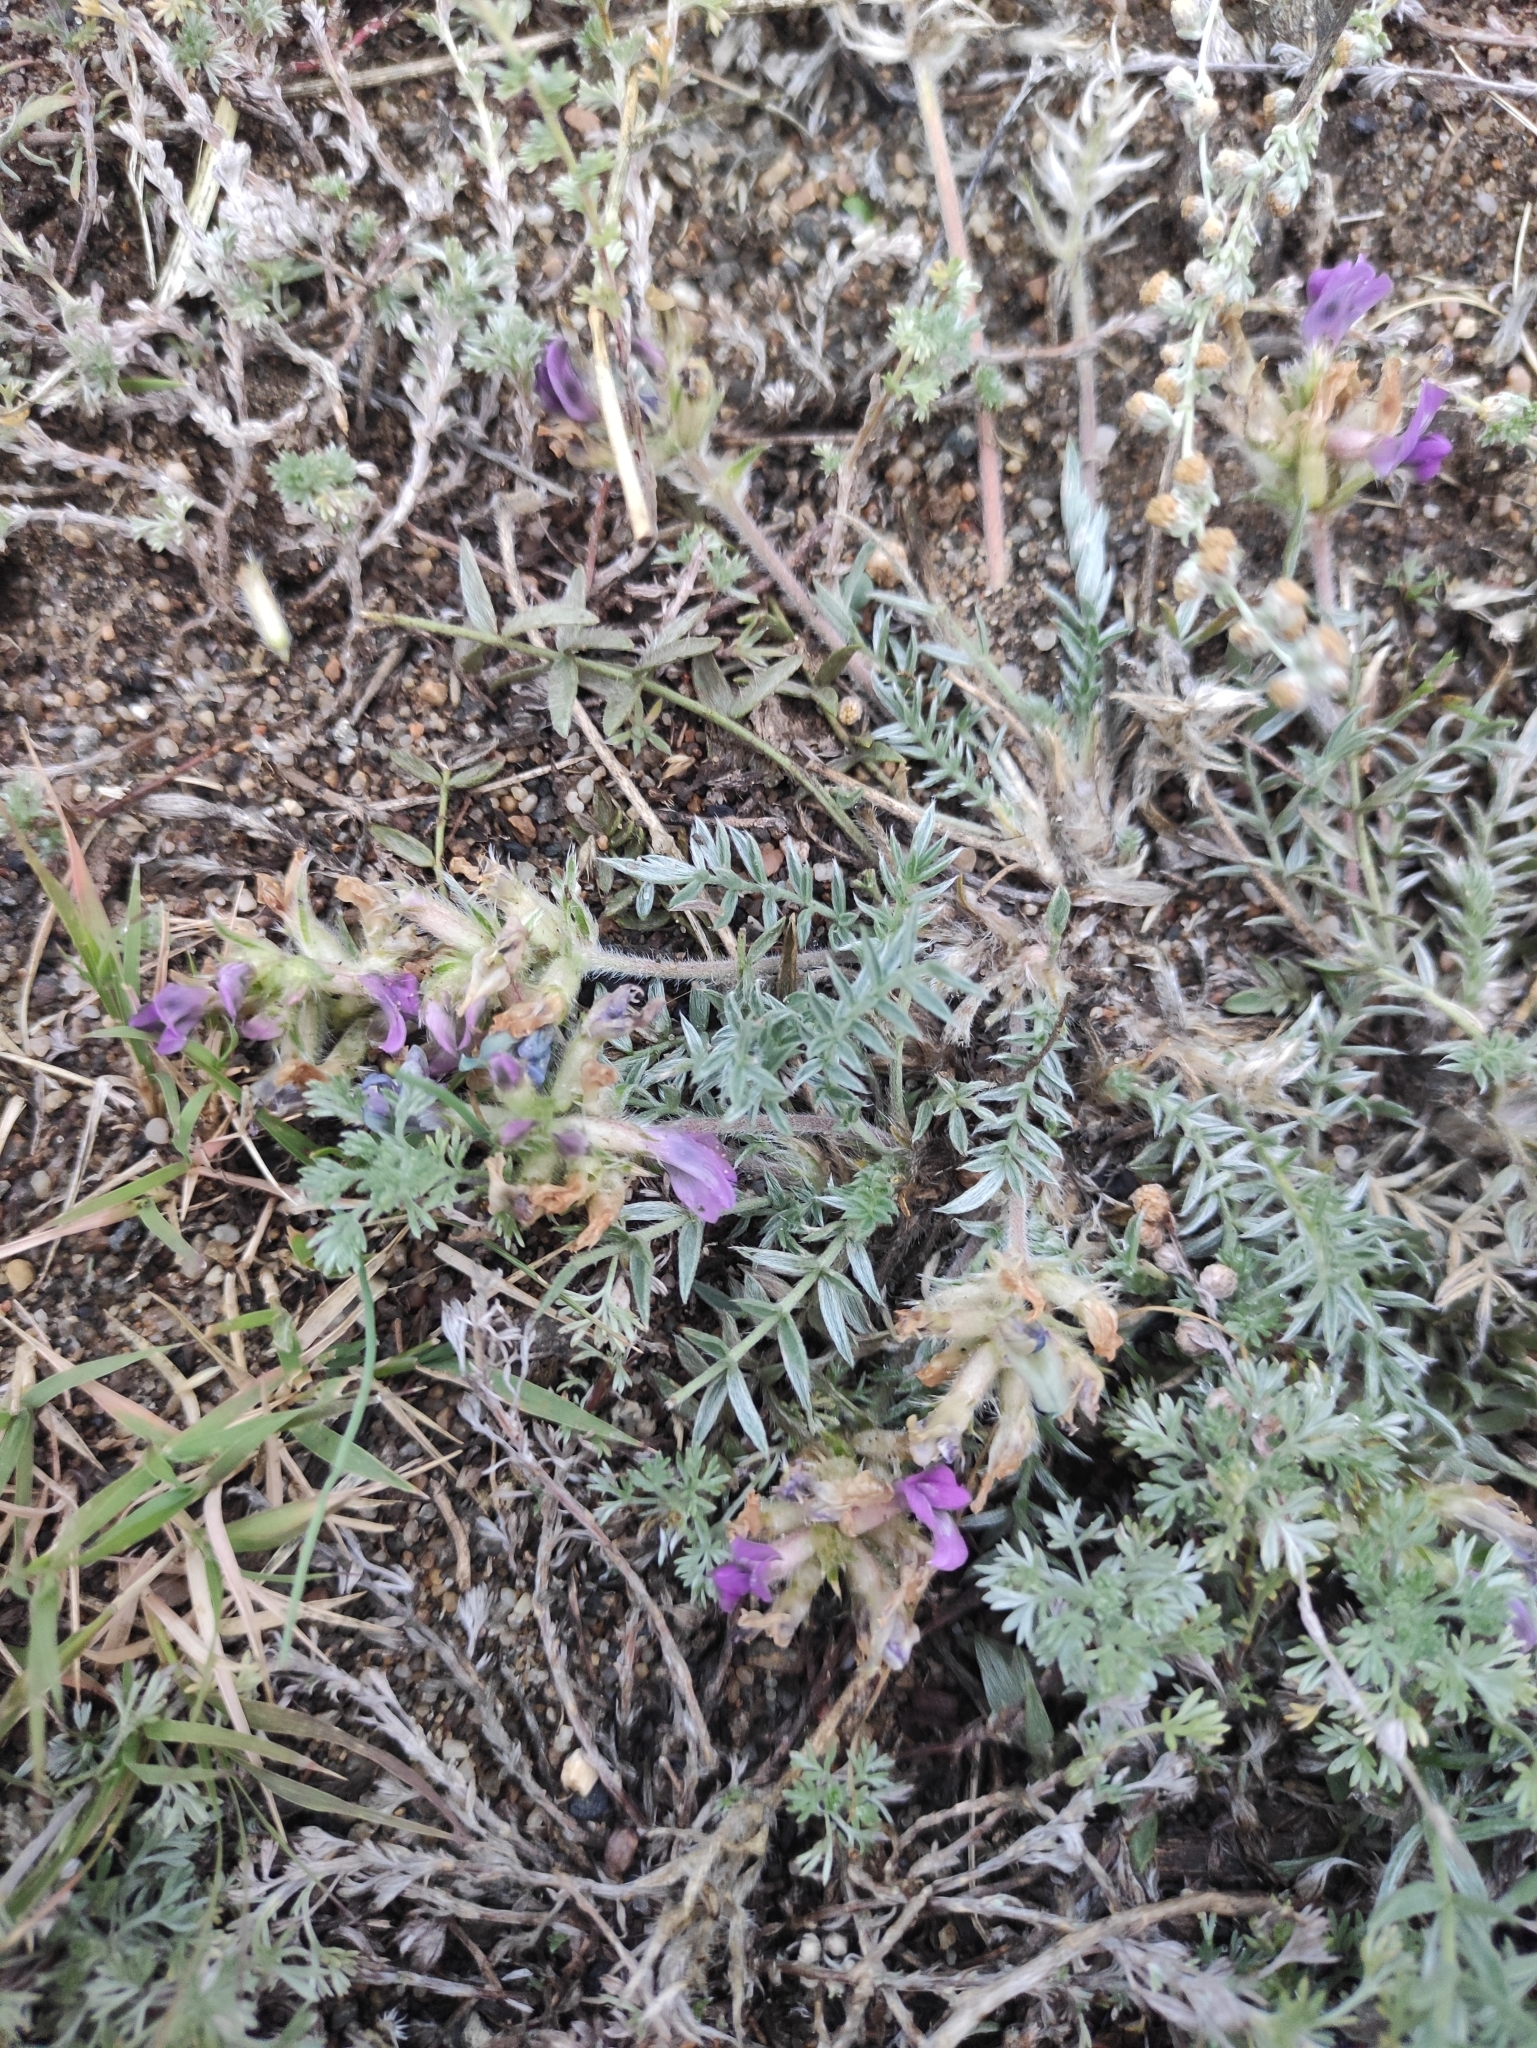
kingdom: Plantae
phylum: Tracheophyta
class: Magnoliopsida
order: Fabales
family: Fabaceae
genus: Oxytropis
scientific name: Oxytropis turczaninovii
